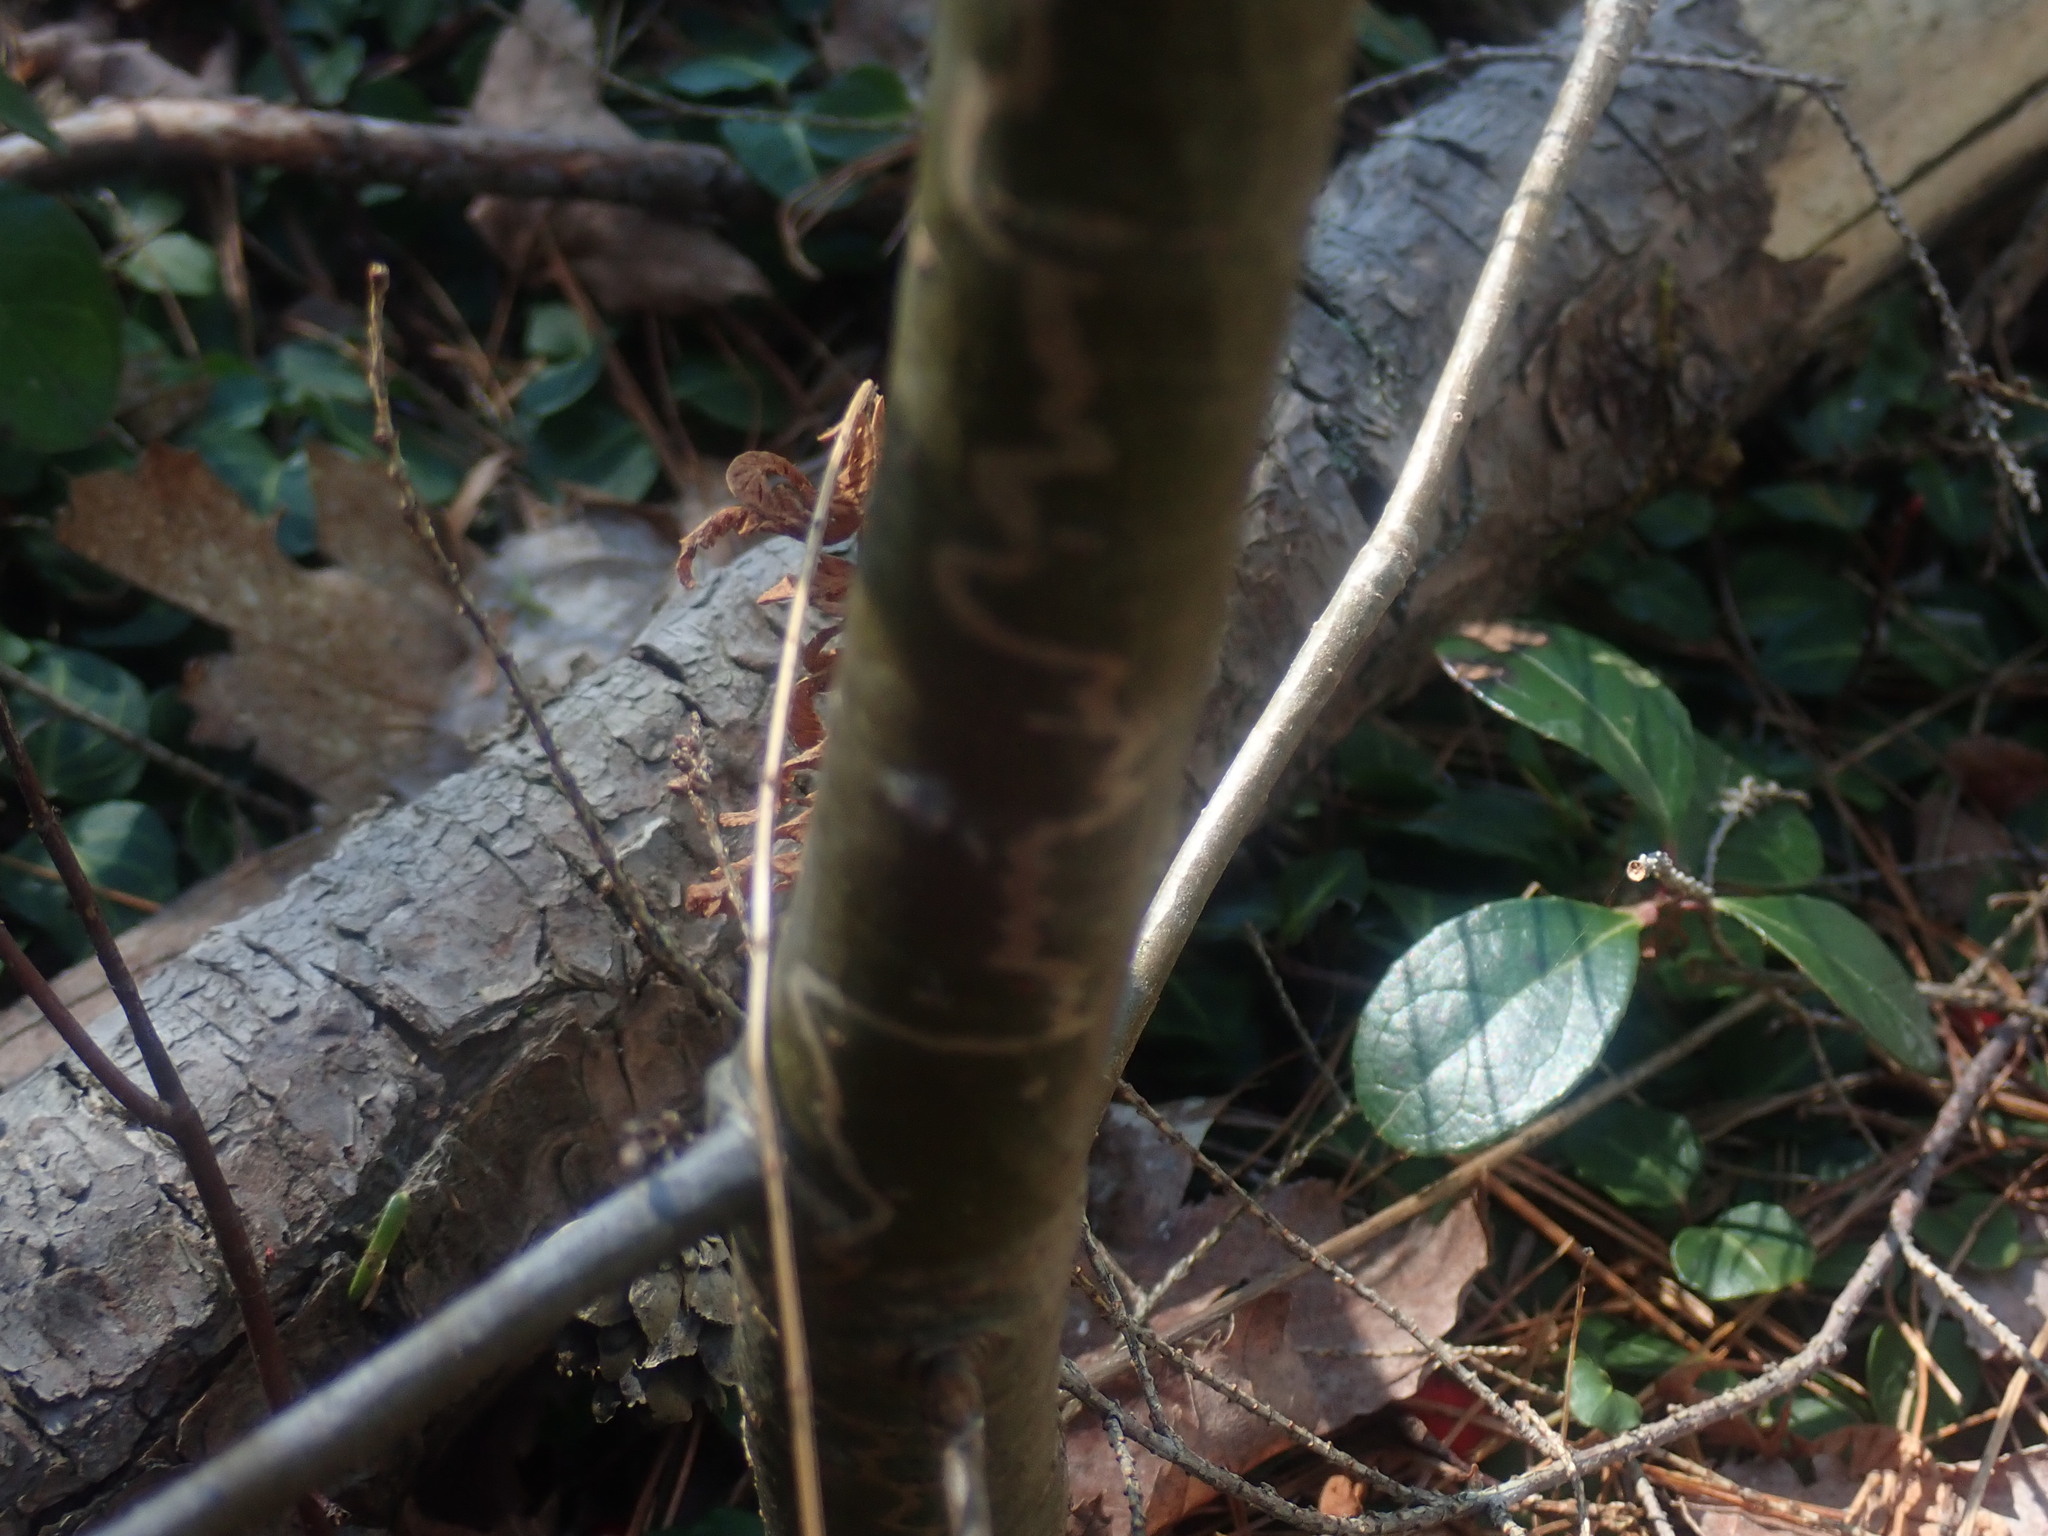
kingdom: Animalia
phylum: Arthropoda
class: Insecta
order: Lepidoptera
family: Gracillariidae
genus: Marmara
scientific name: Marmara fasciella
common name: White pine barkminer moth
